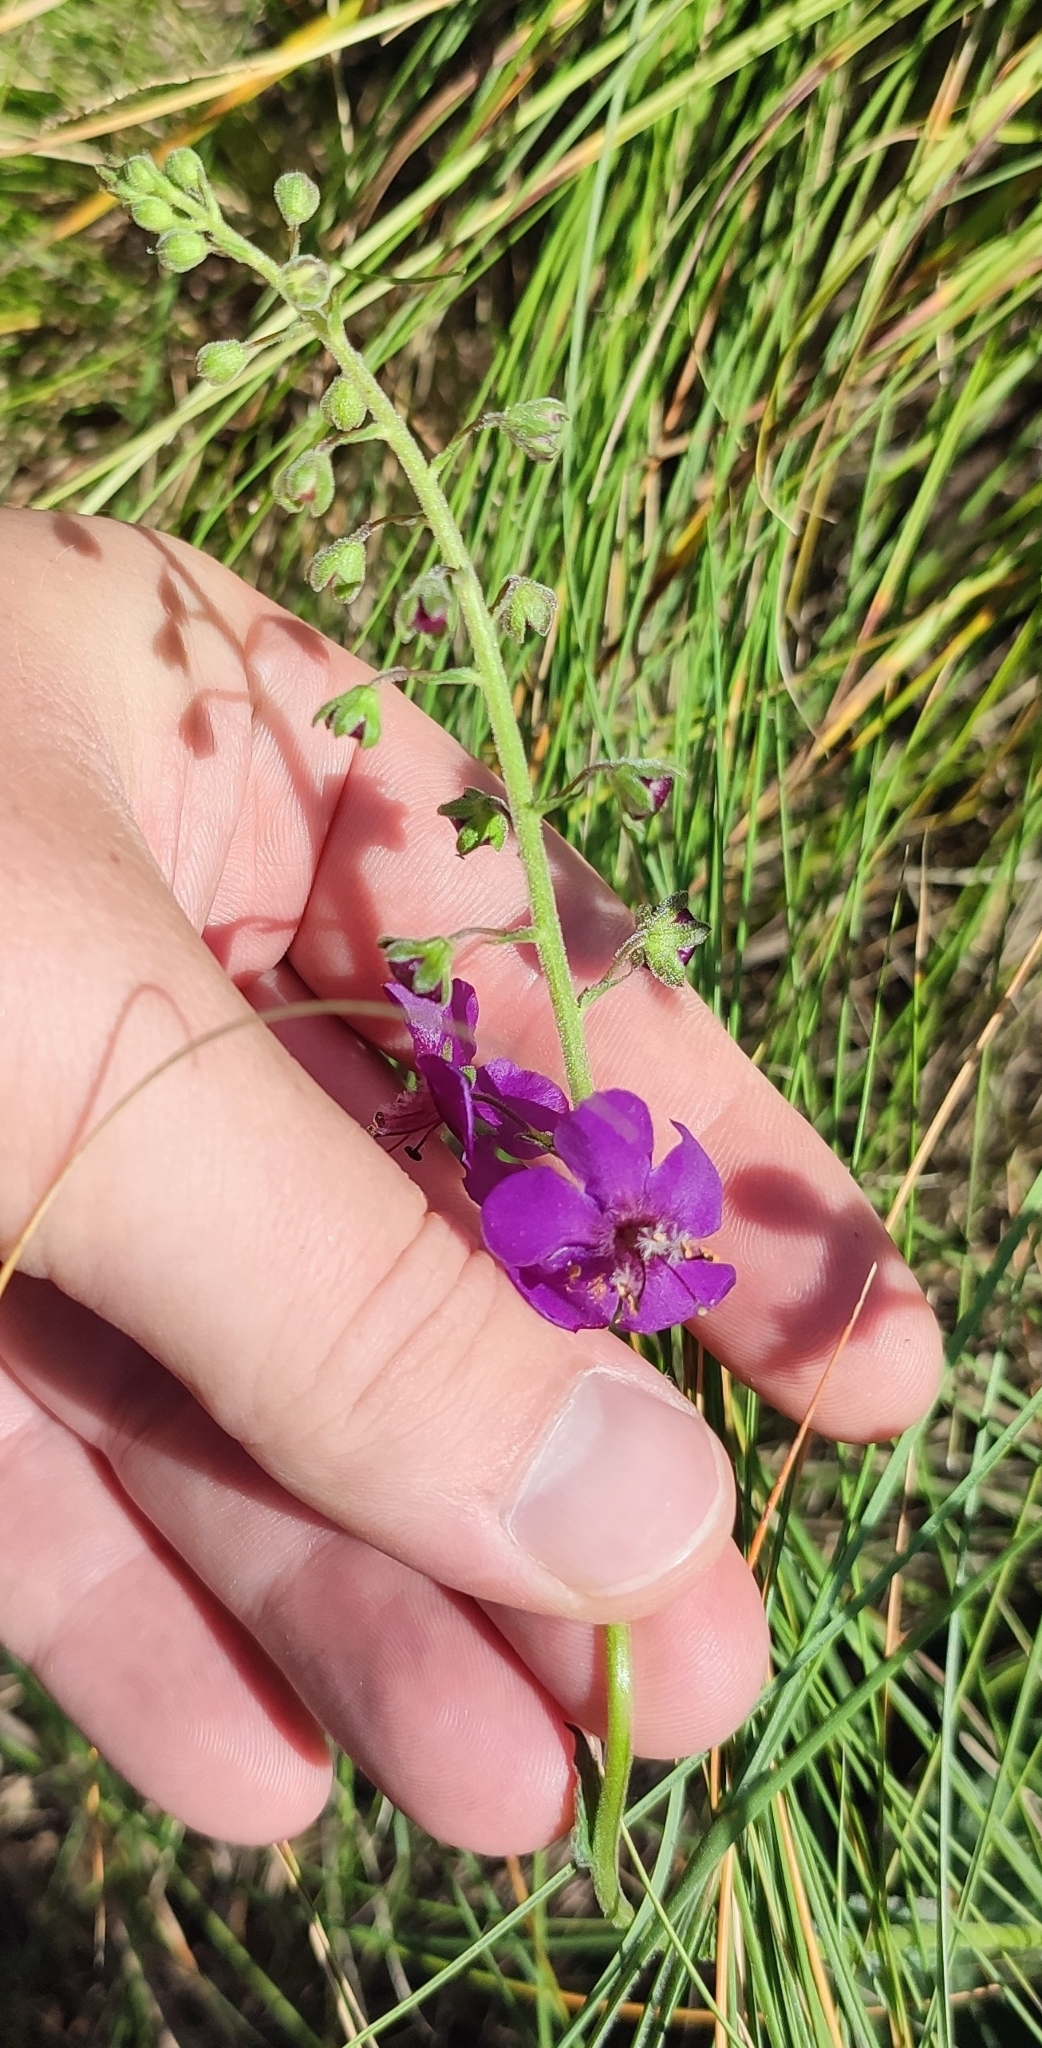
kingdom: Plantae
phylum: Tracheophyta
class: Magnoliopsida
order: Lamiales
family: Scrophulariaceae
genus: Verbascum
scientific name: Verbascum phoeniceum
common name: Purple mullein
